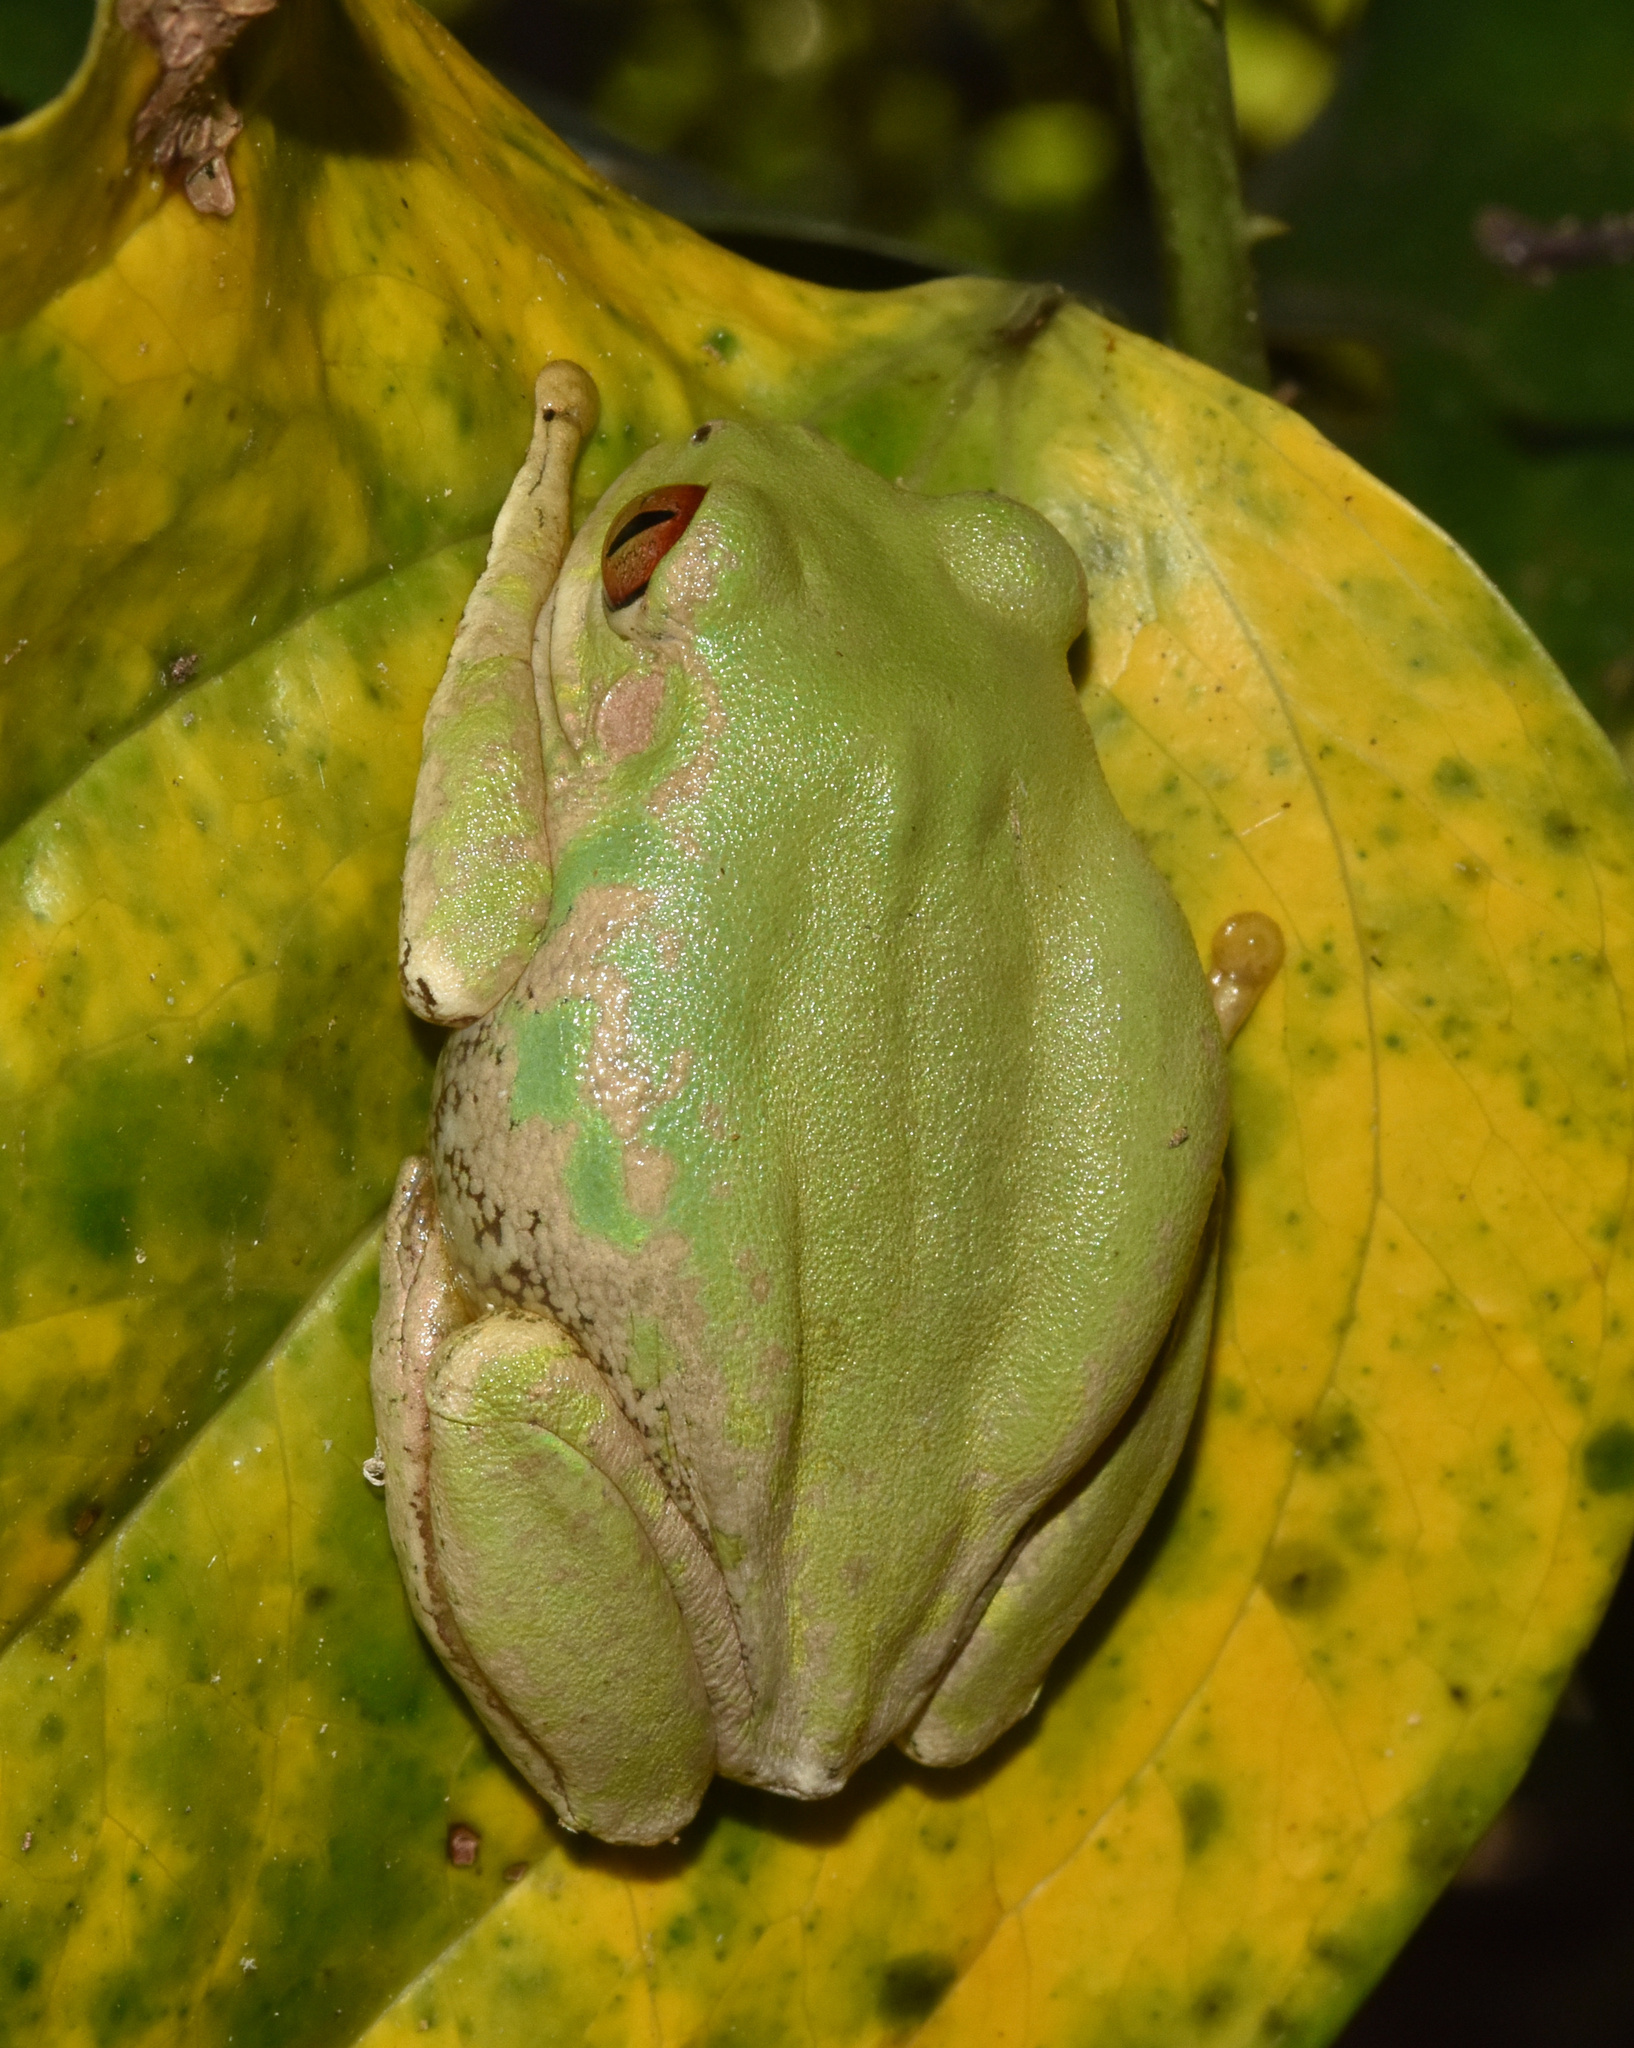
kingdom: Animalia
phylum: Chordata
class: Amphibia
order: Anura
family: Arthroleptidae
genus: Leptopelis
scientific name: Leptopelis natalensis
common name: Natal tree frog
